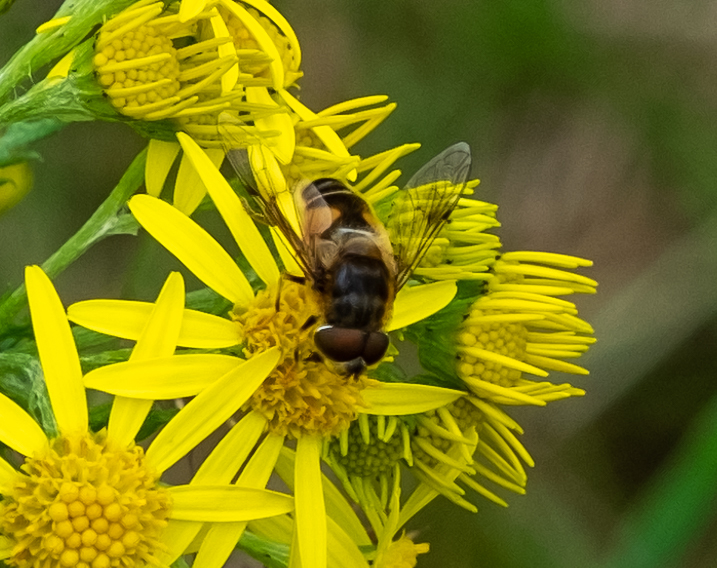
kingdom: Animalia
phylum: Arthropoda
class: Insecta
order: Diptera
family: Syrphidae
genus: Eristalis
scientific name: Eristalis pertinax
